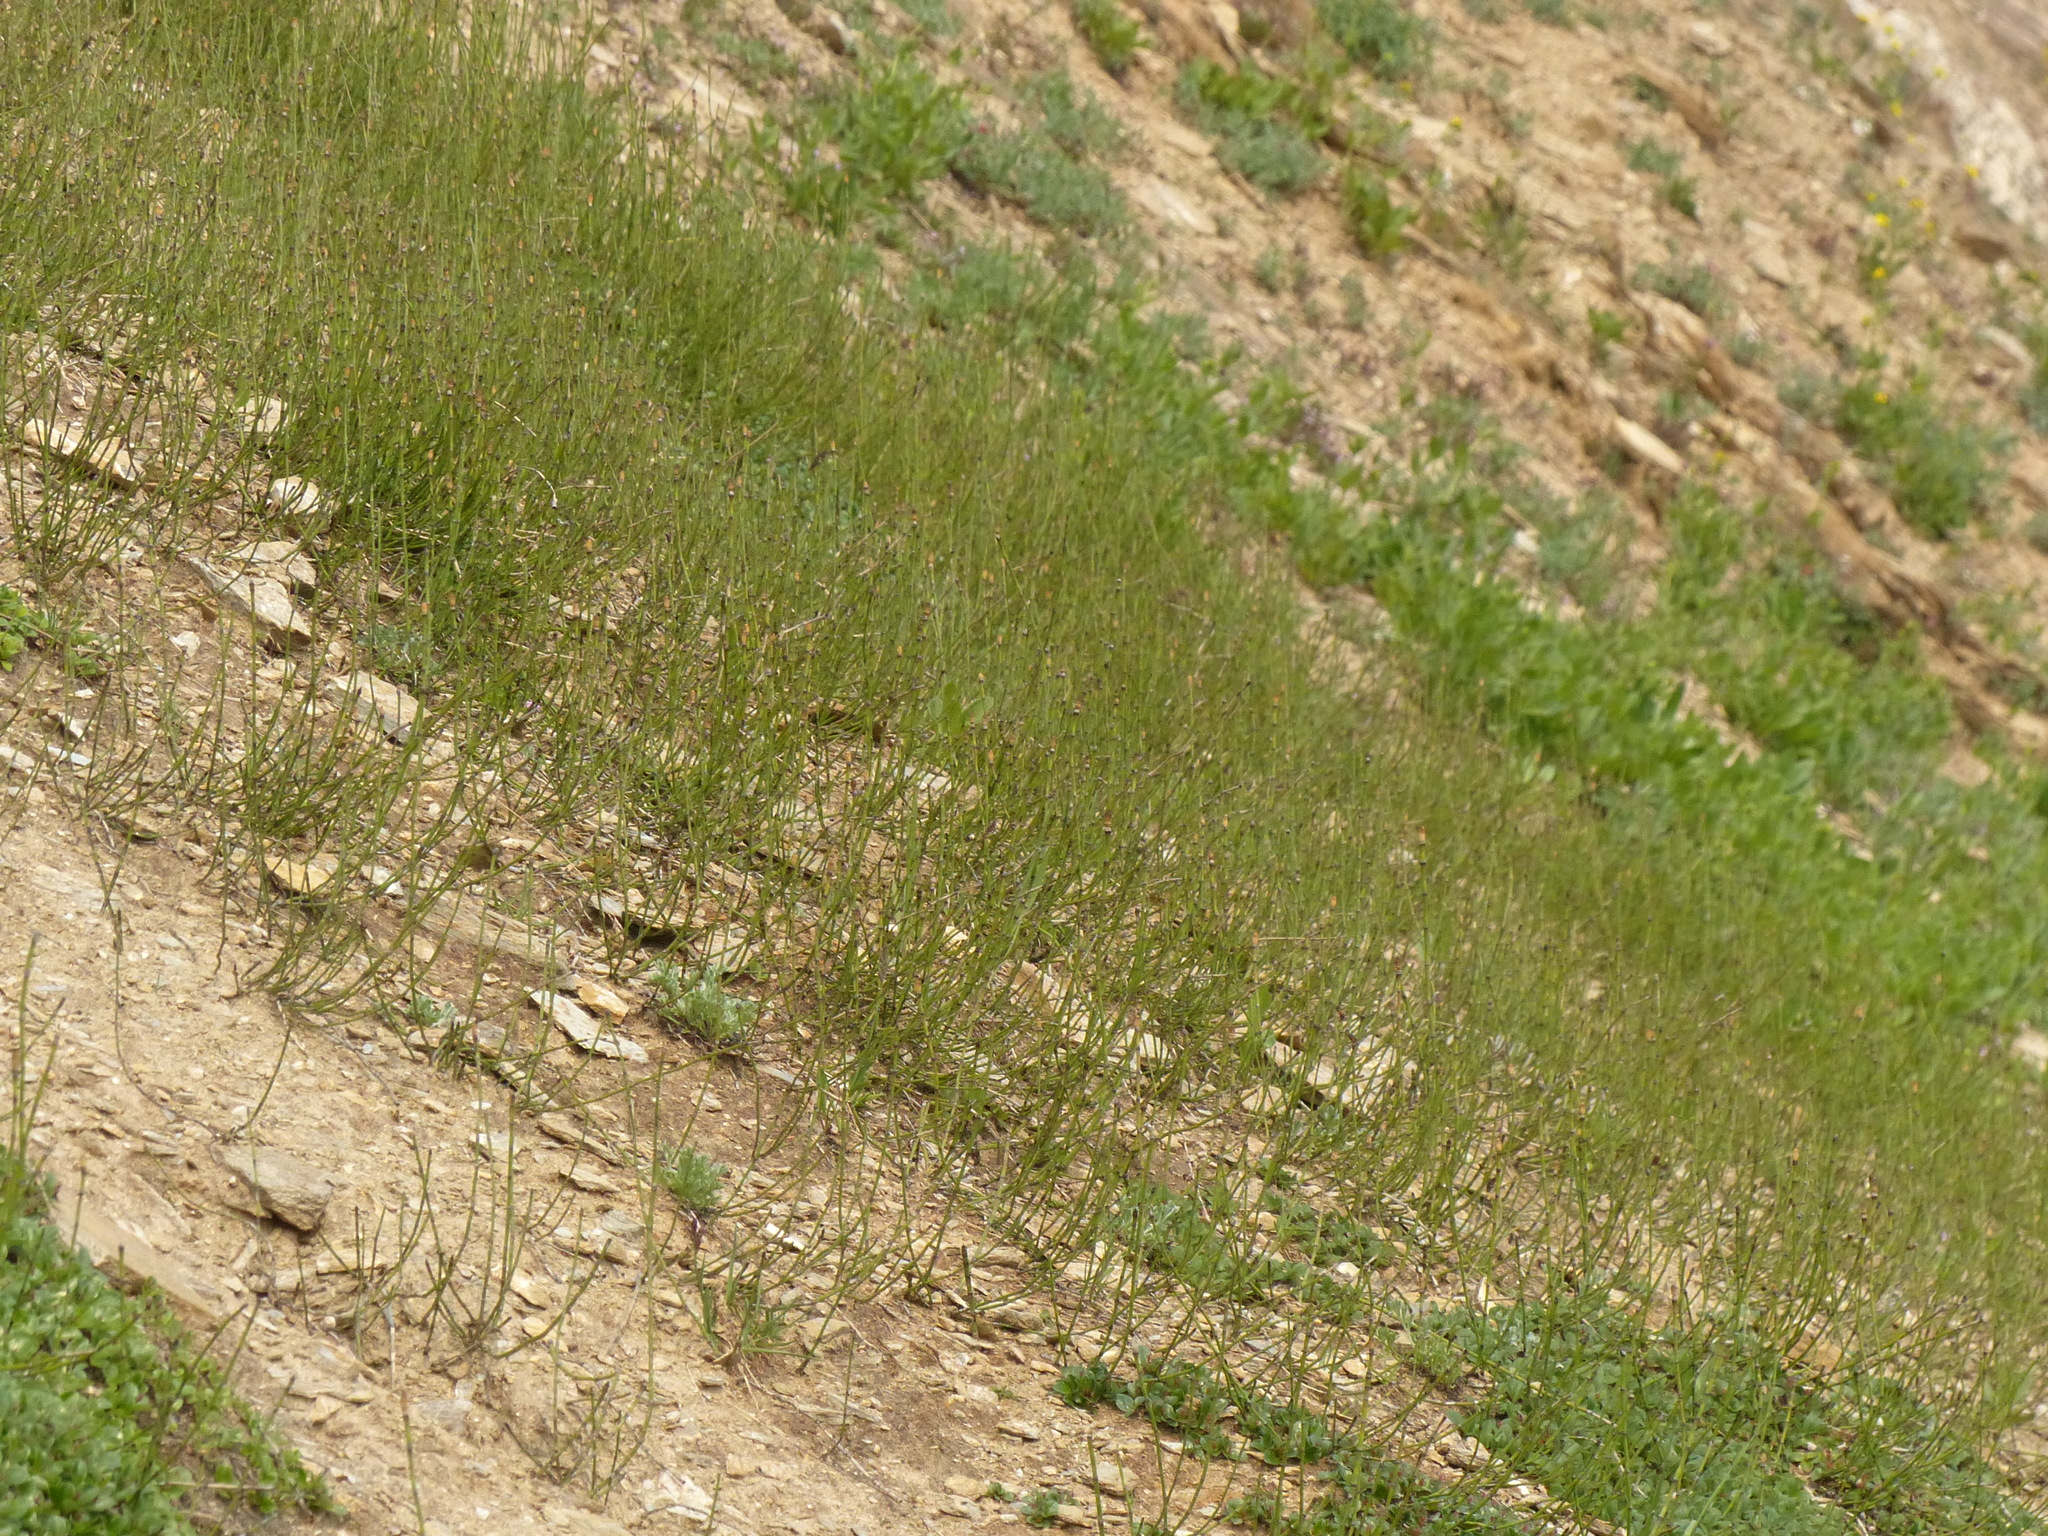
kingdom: Plantae
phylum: Tracheophyta
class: Polypodiopsida
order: Equisetales
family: Equisetaceae
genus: Equisetum
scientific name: Equisetum variegatum
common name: Variegated horsetail
